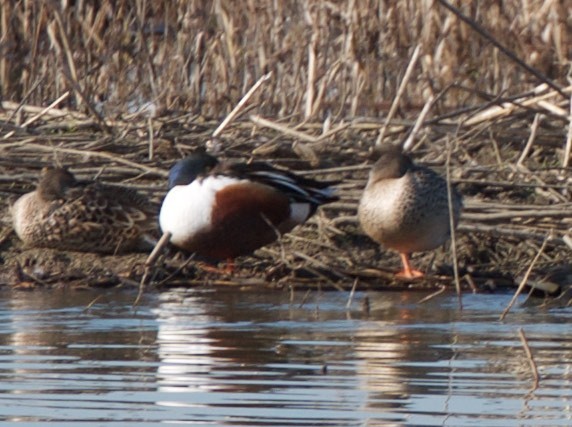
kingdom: Animalia
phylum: Chordata
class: Aves
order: Anseriformes
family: Anatidae
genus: Spatula
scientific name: Spatula clypeata
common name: Northern shoveler
